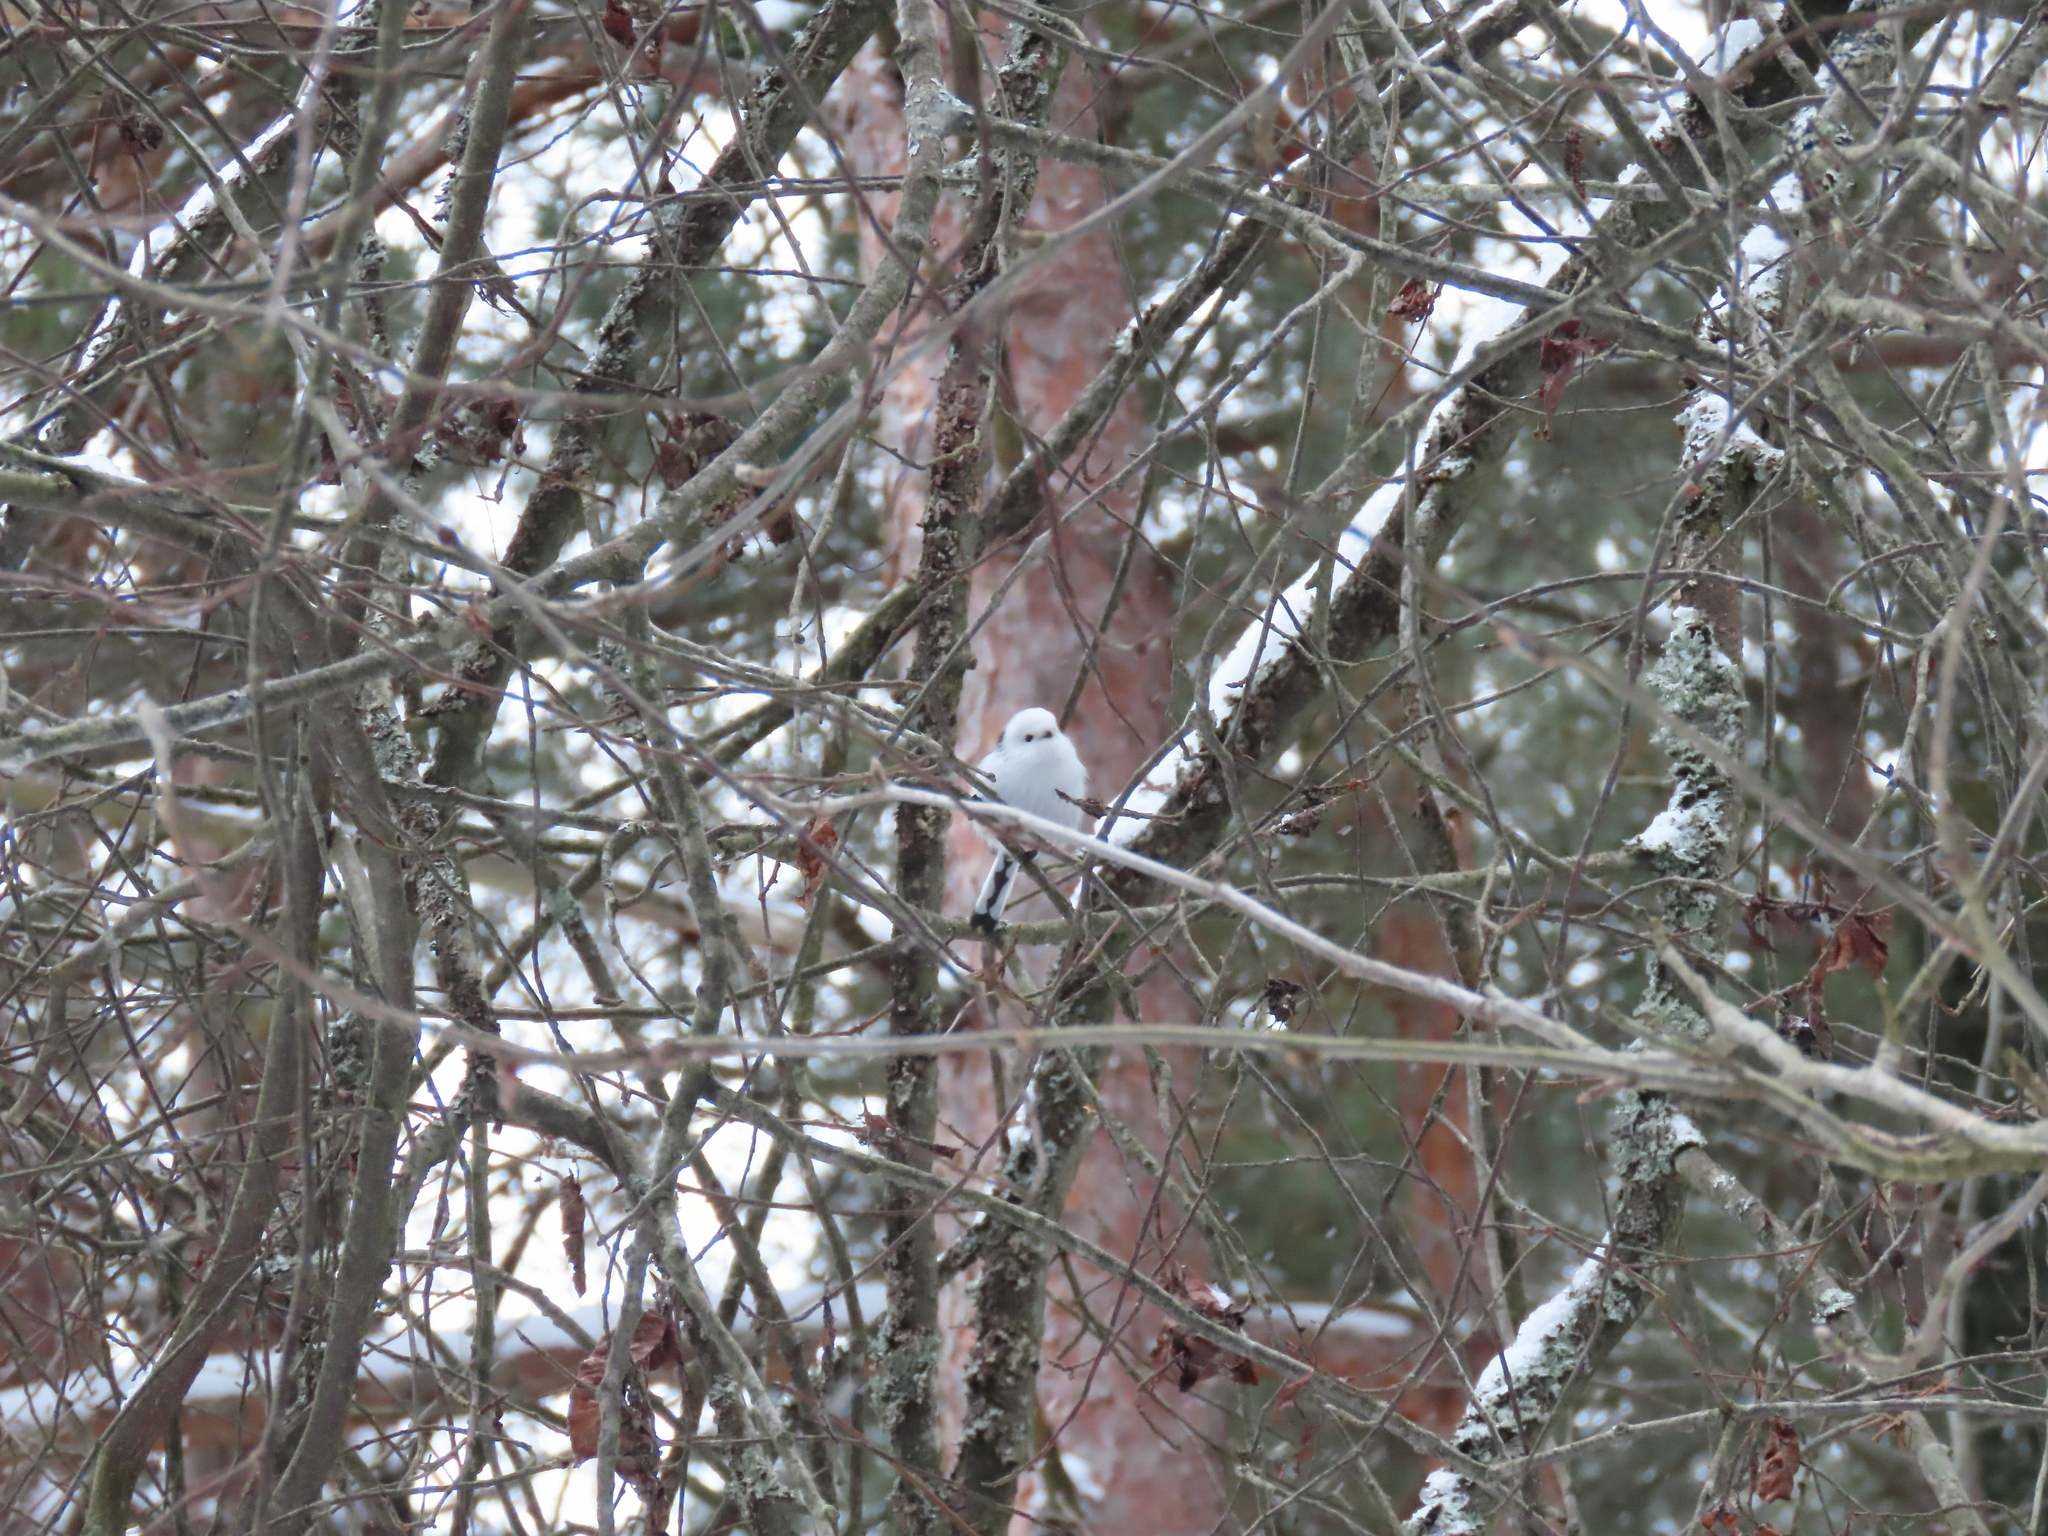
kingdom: Animalia
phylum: Chordata
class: Aves
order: Passeriformes
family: Aegithalidae
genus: Aegithalos
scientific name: Aegithalos caudatus
